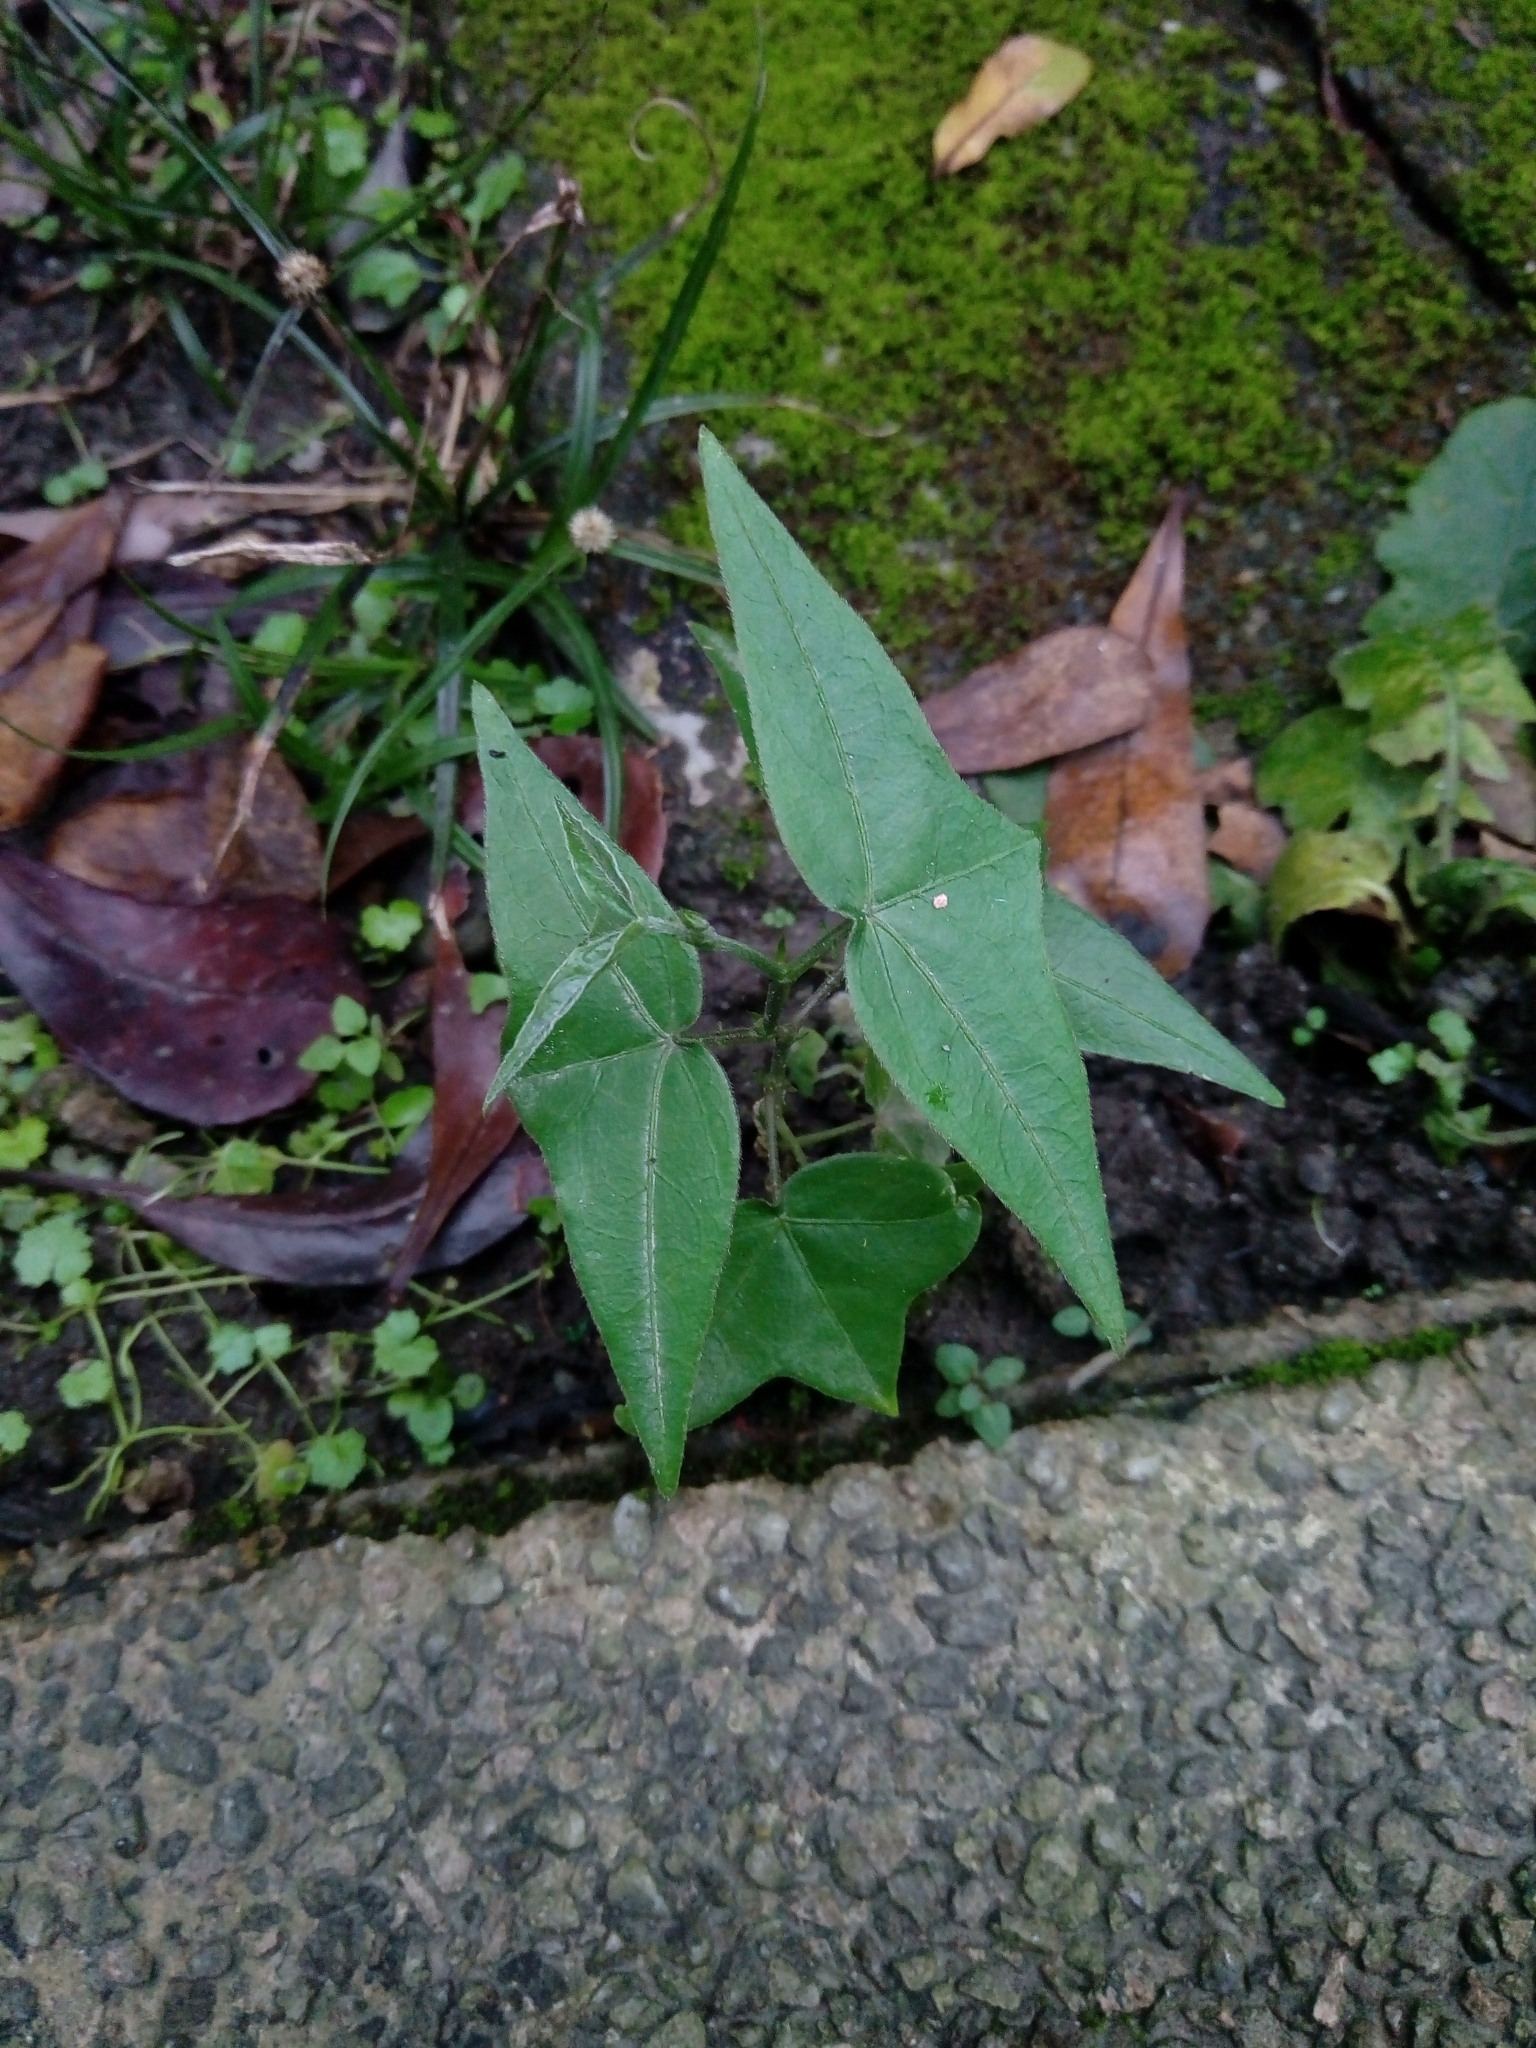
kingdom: Plantae
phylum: Tracheophyta
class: Magnoliopsida
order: Malpighiales
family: Passifloraceae
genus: Passiflora
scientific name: Passiflora suberosa
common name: Wild passionfruit
